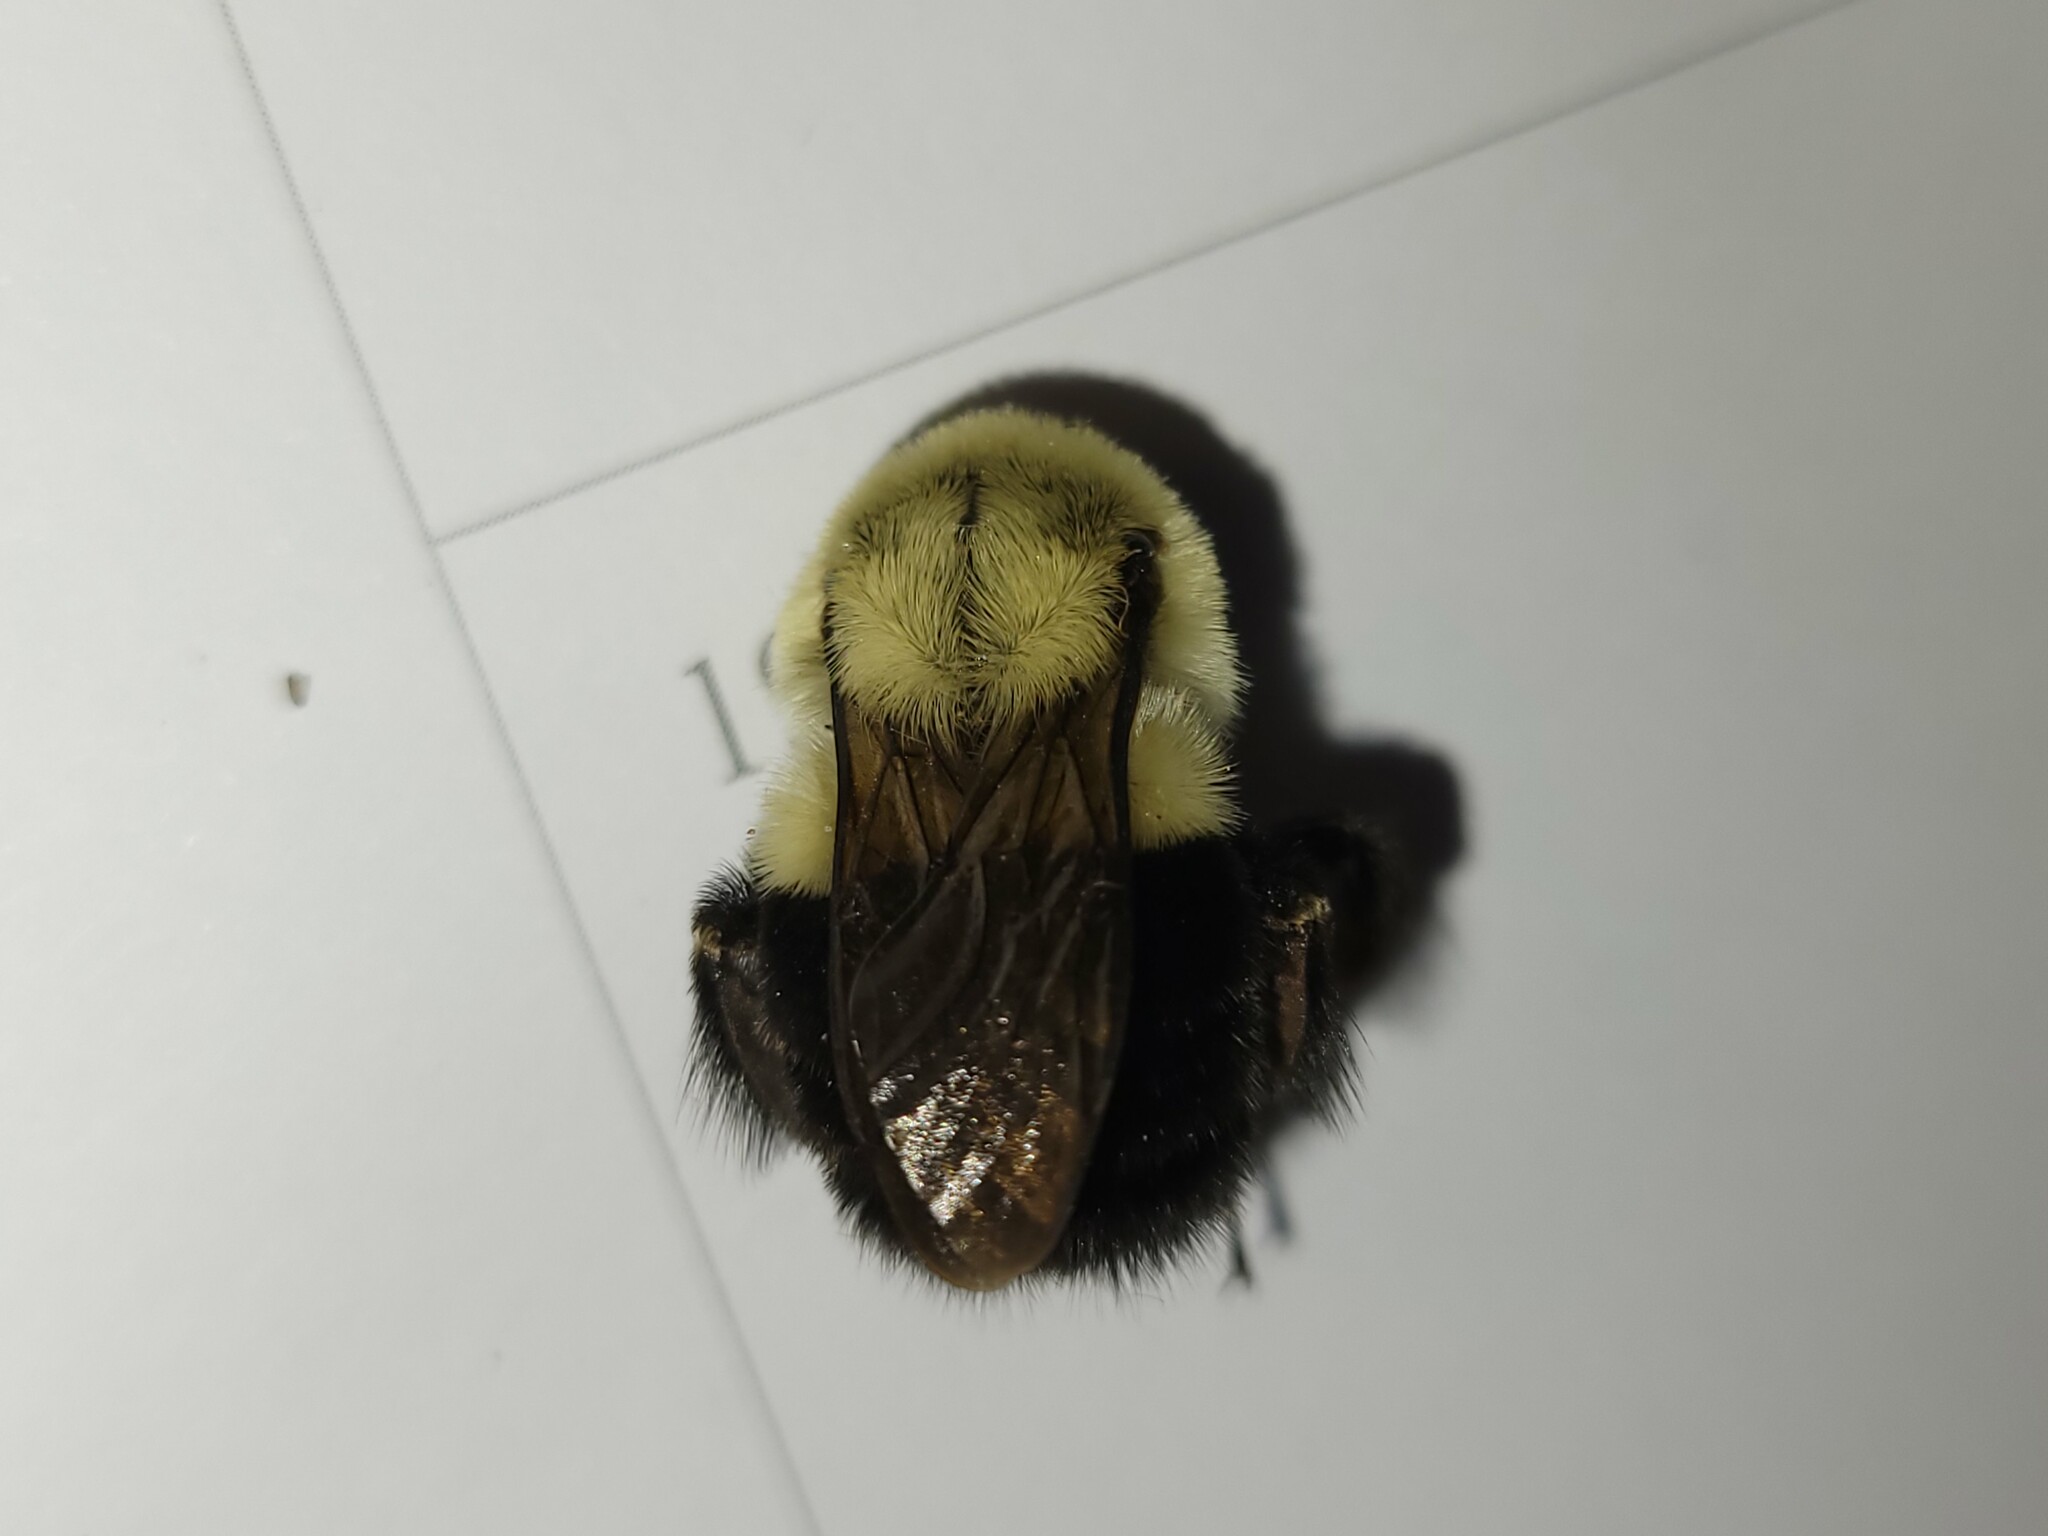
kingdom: Animalia
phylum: Arthropoda
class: Insecta
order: Hymenoptera
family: Apidae
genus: Bombus
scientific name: Bombus impatiens
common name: Common eastern bumble bee
